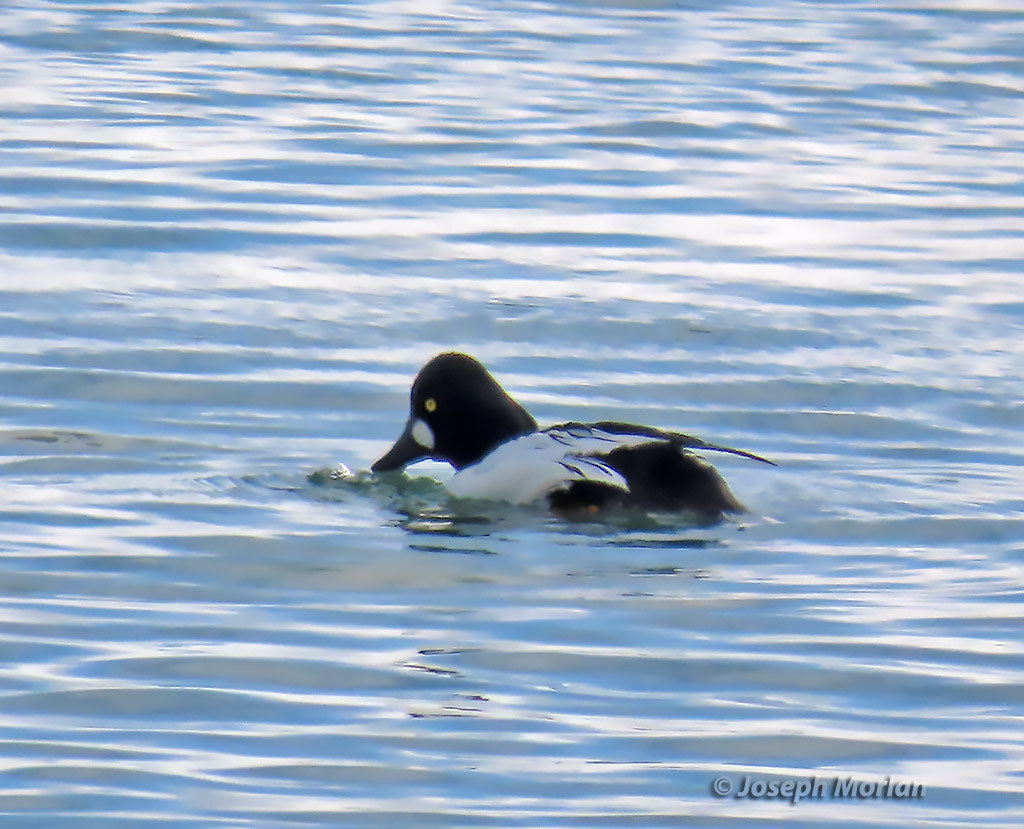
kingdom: Animalia
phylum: Chordata
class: Aves
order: Anseriformes
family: Anatidae
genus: Bucephala
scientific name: Bucephala clangula
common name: Common goldeneye
